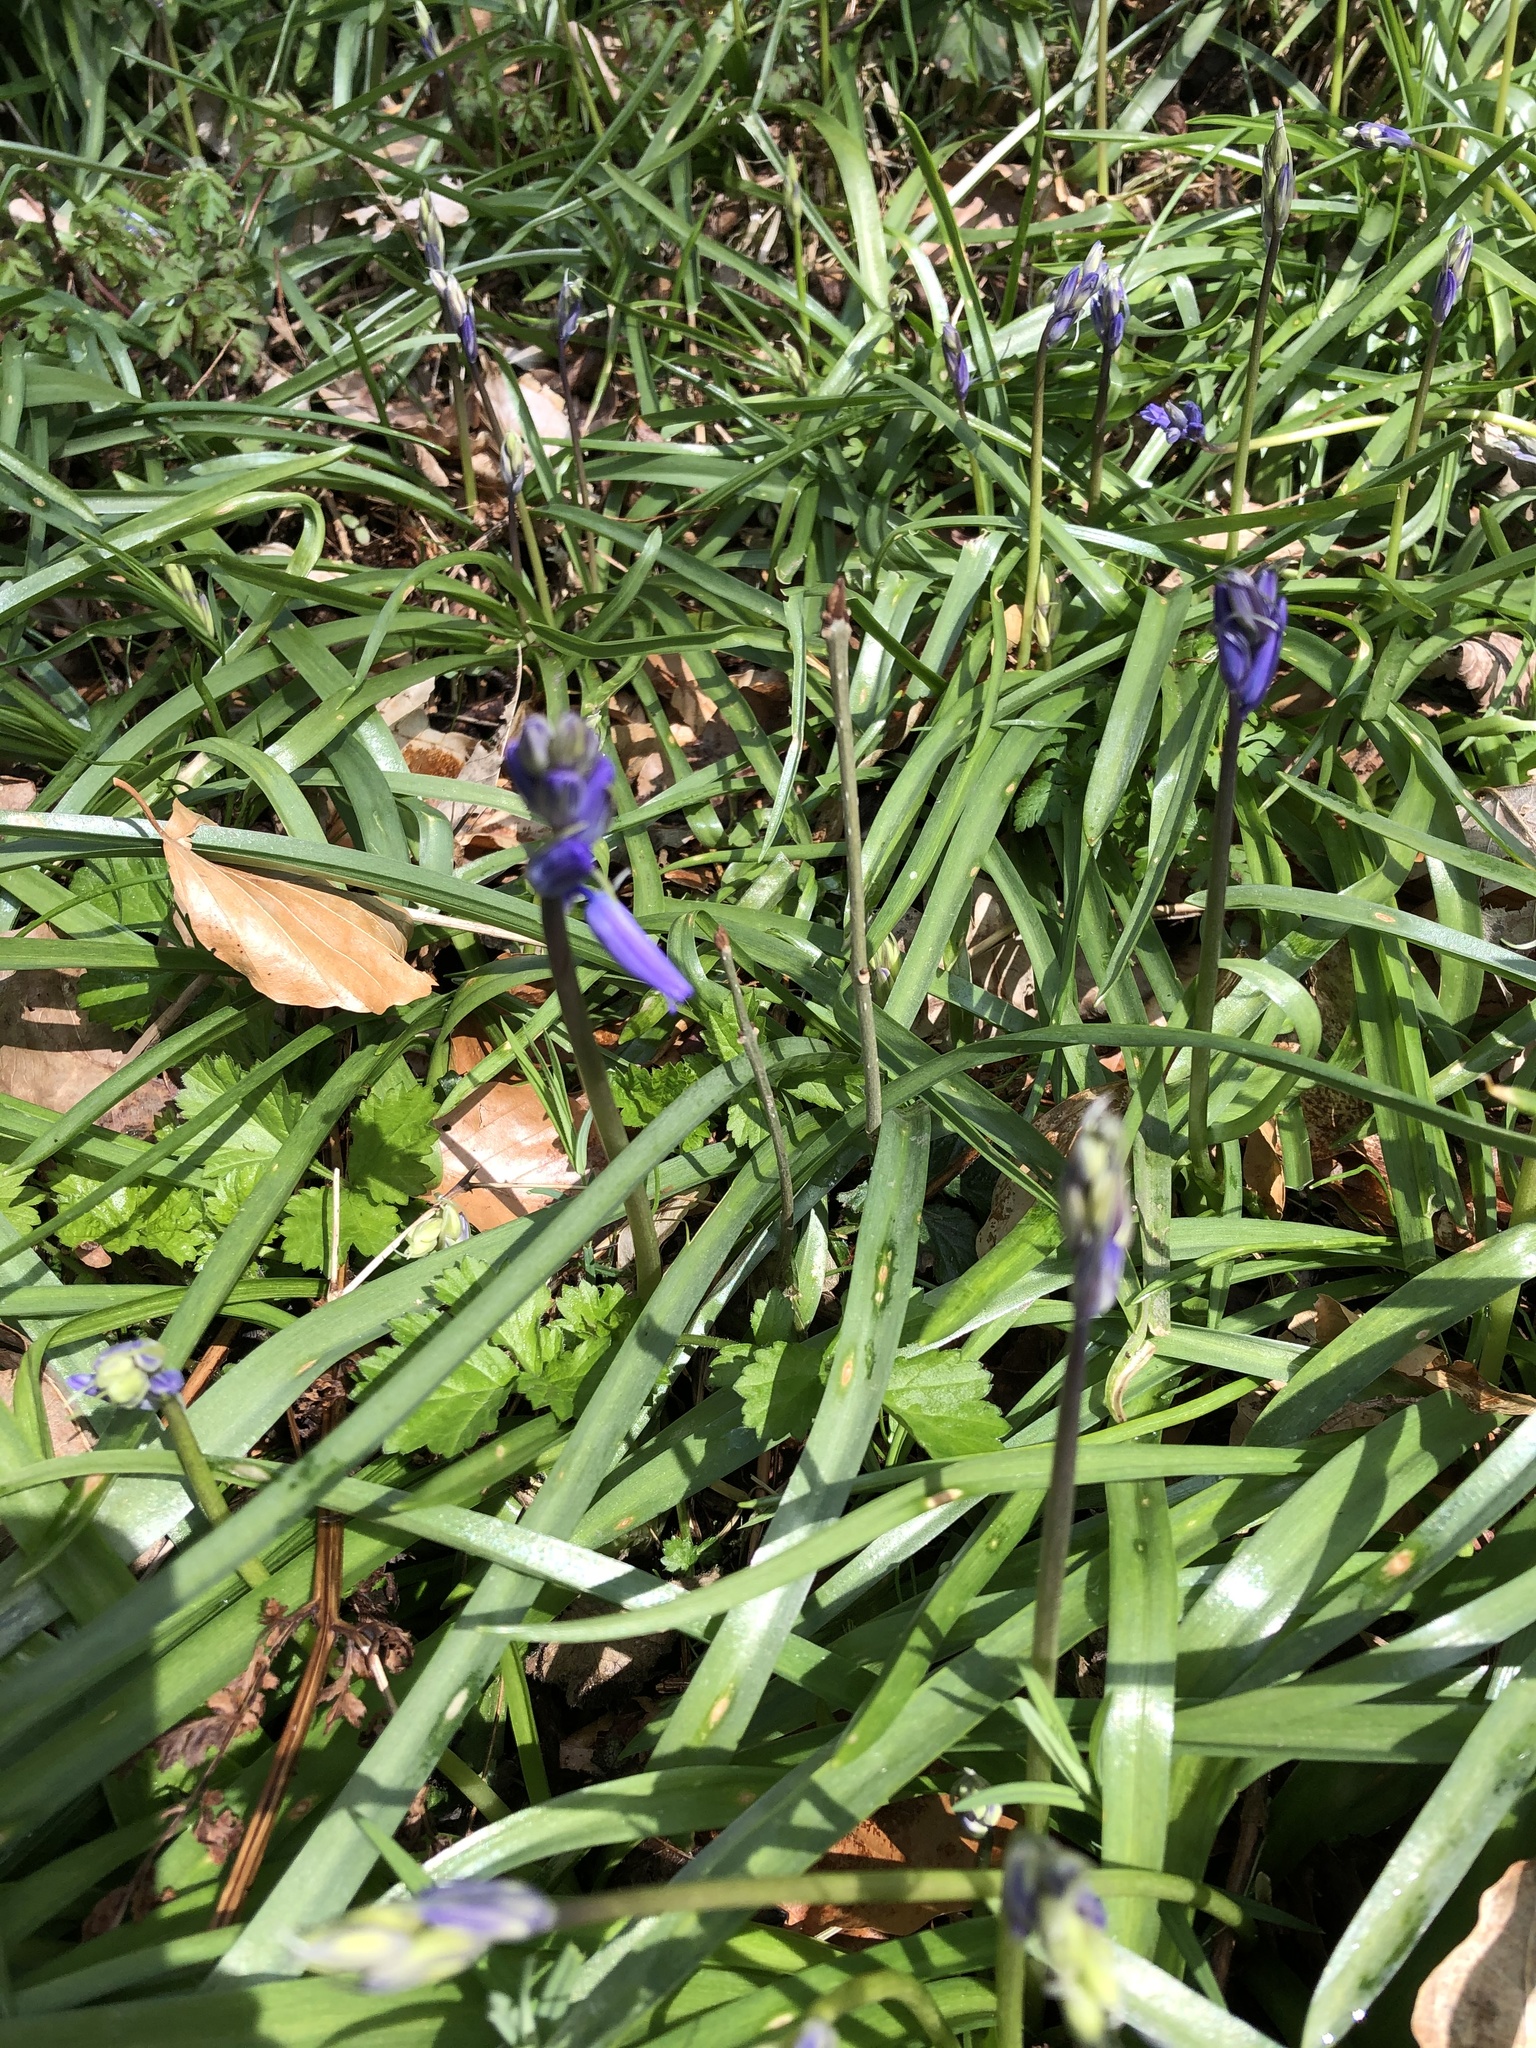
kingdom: Plantae
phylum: Tracheophyta
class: Liliopsida
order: Asparagales
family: Asparagaceae
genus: Hyacinthoides
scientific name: Hyacinthoides non-scripta
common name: Bluebell
